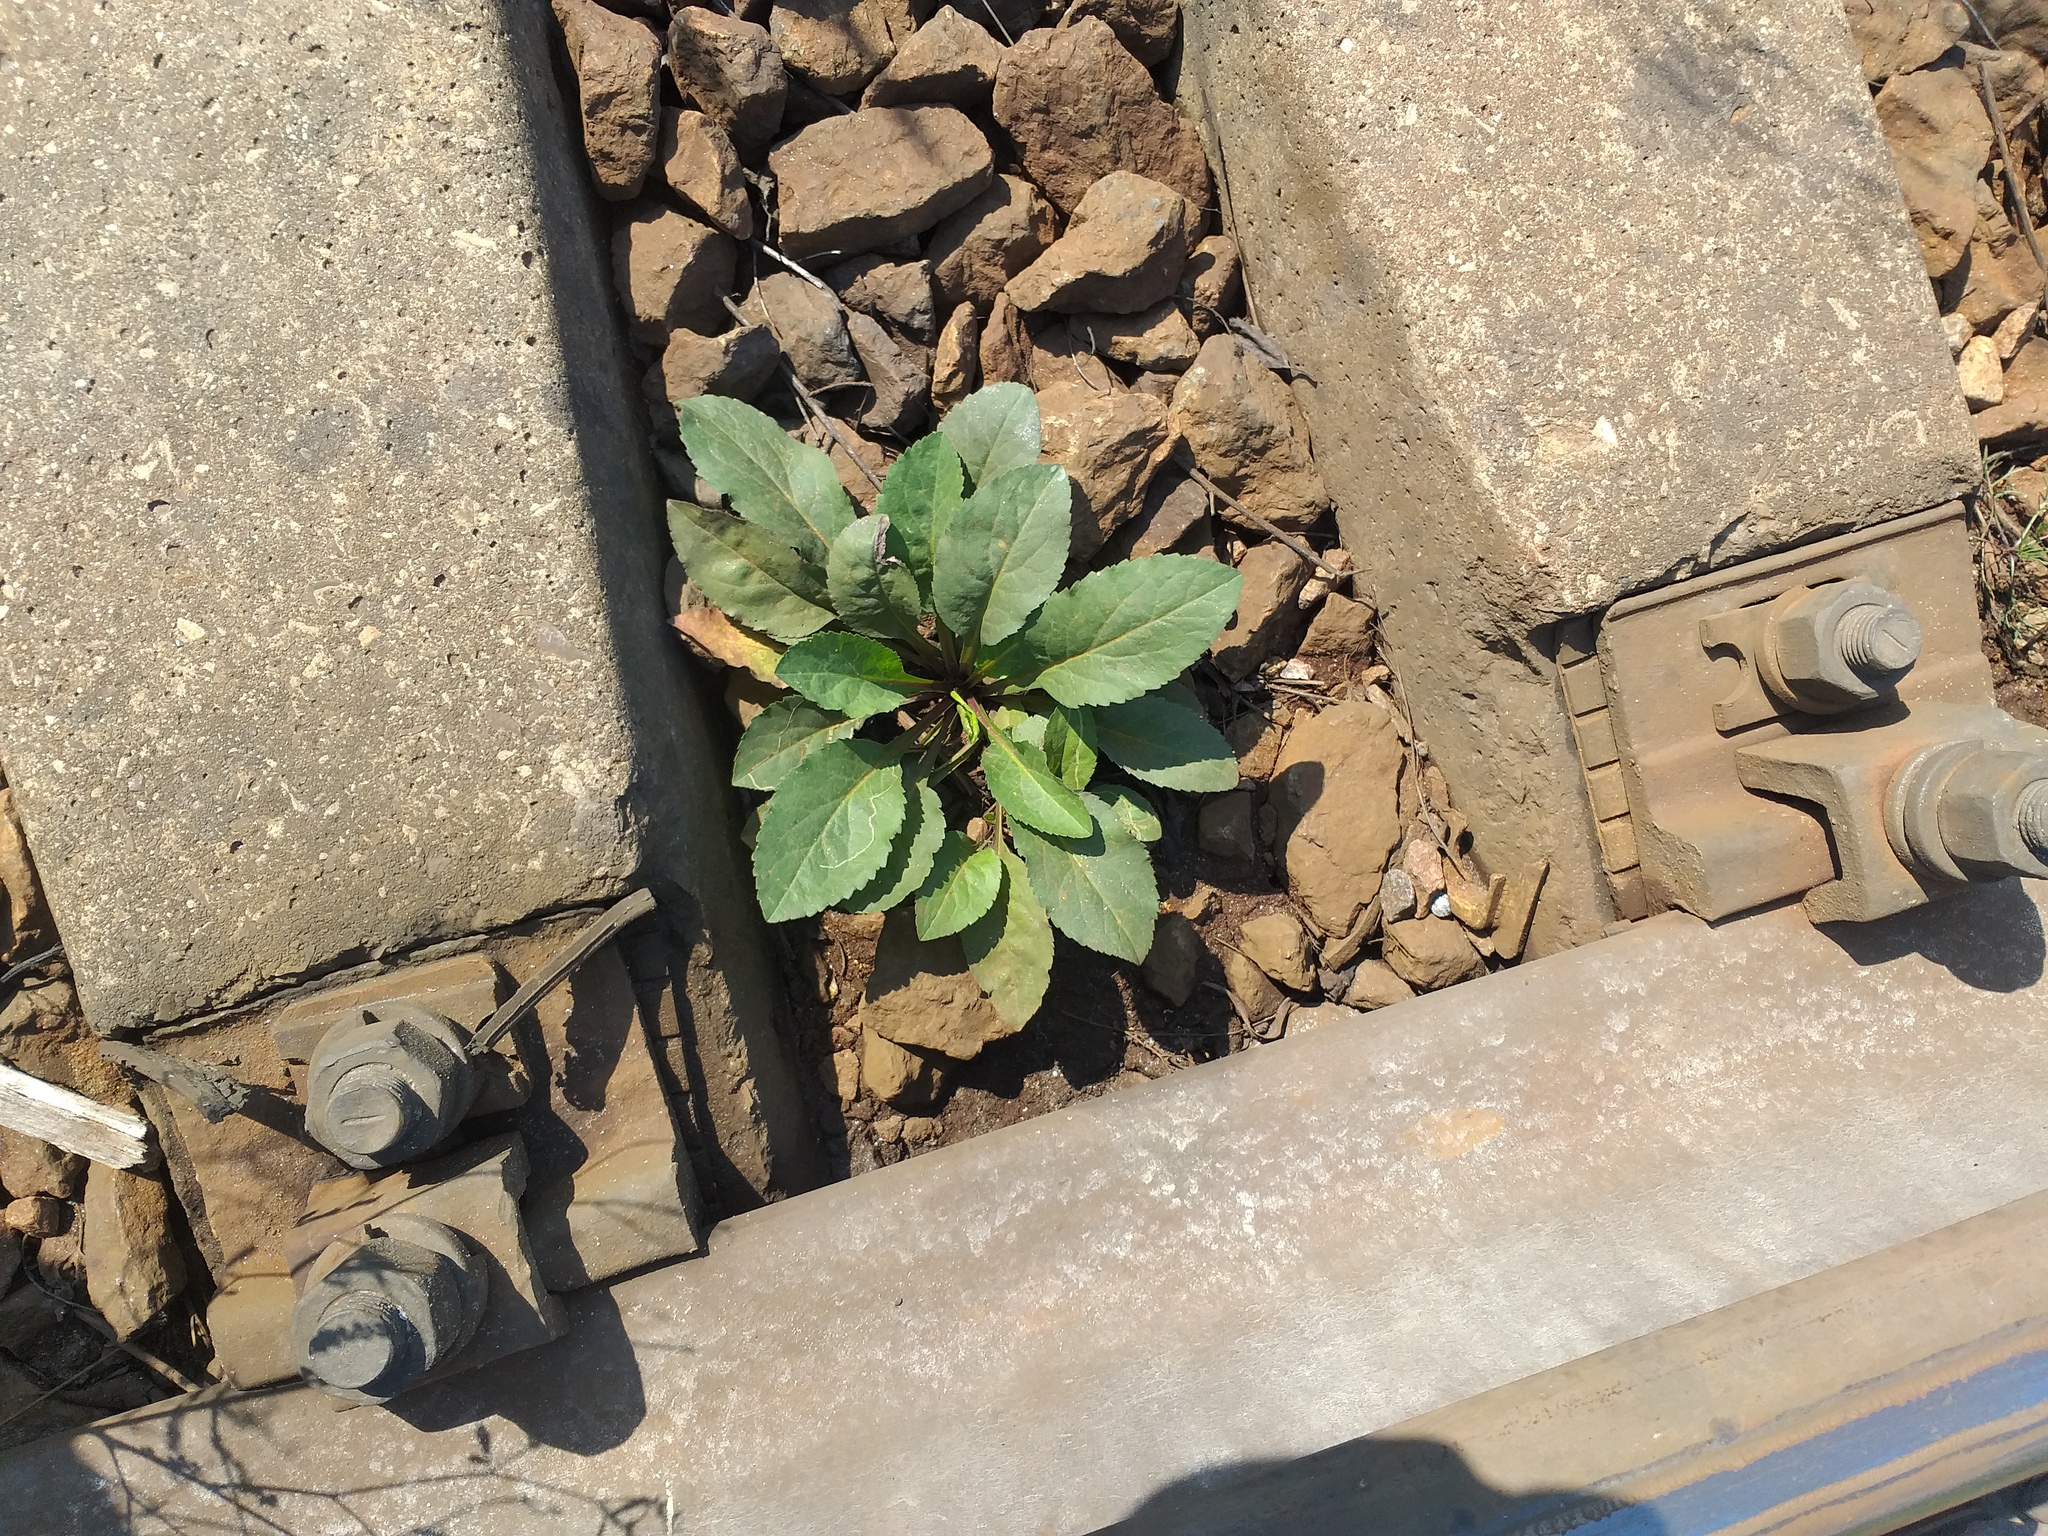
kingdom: Plantae
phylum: Tracheophyta
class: Magnoliopsida
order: Asterales
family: Asteraceae
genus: Solidago
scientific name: Solidago virgaurea
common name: Goldenrod
